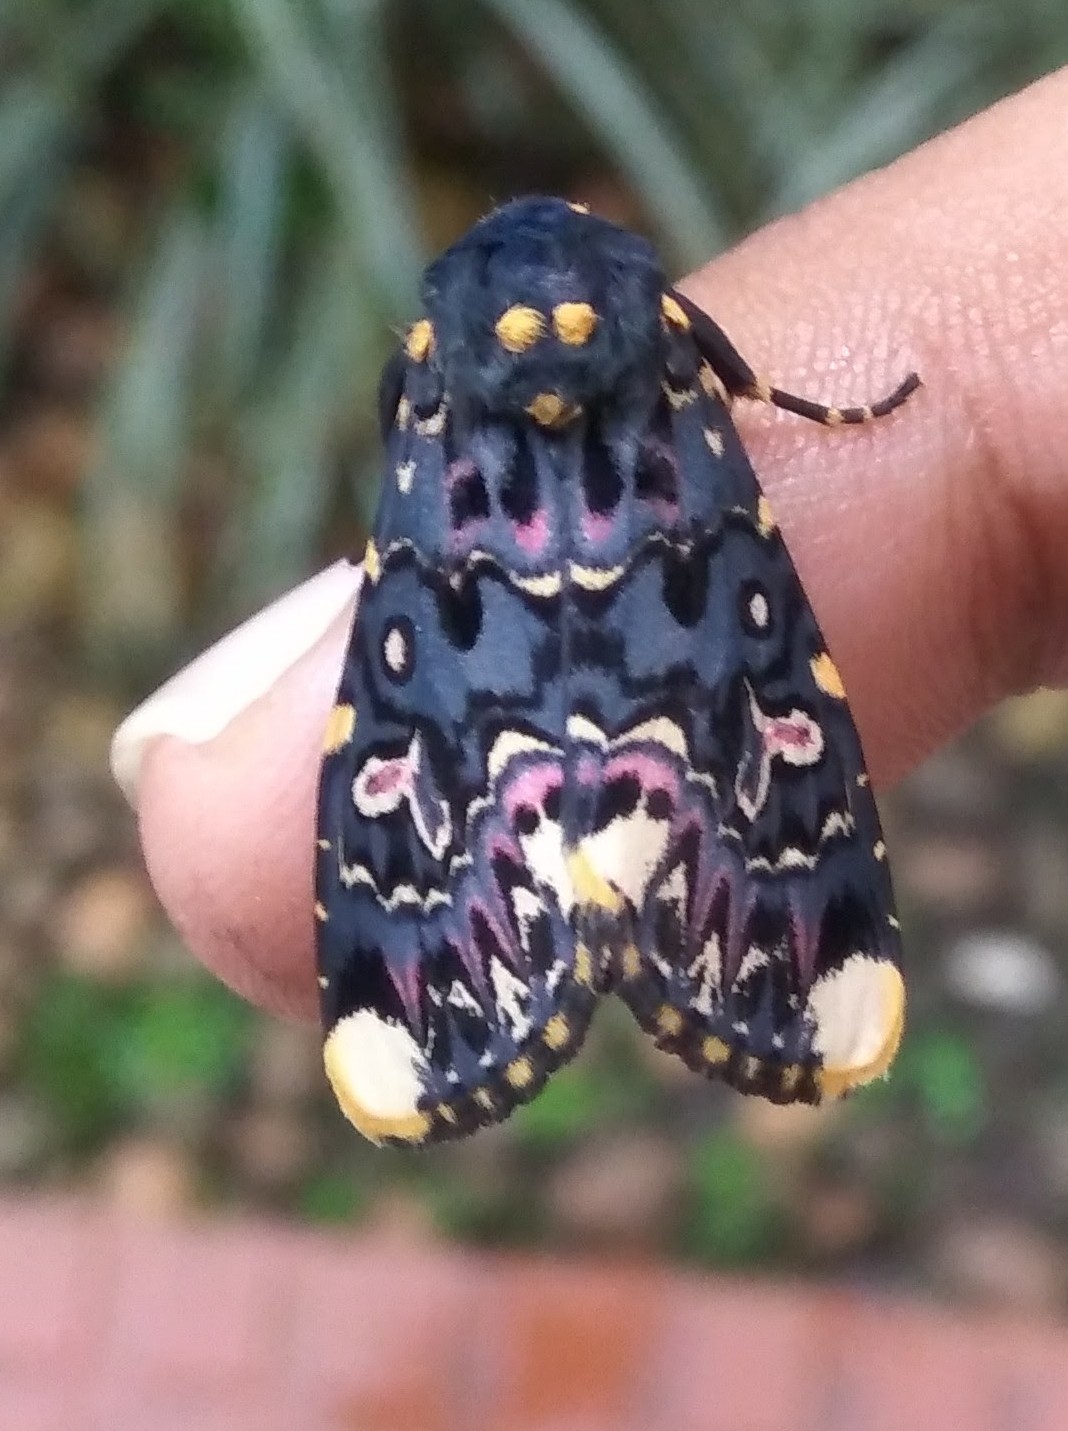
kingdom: Animalia
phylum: Arthropoda
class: Insecta
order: Lepidoptera
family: Noctuidae
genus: Polytela
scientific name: Polytela gloriosae
